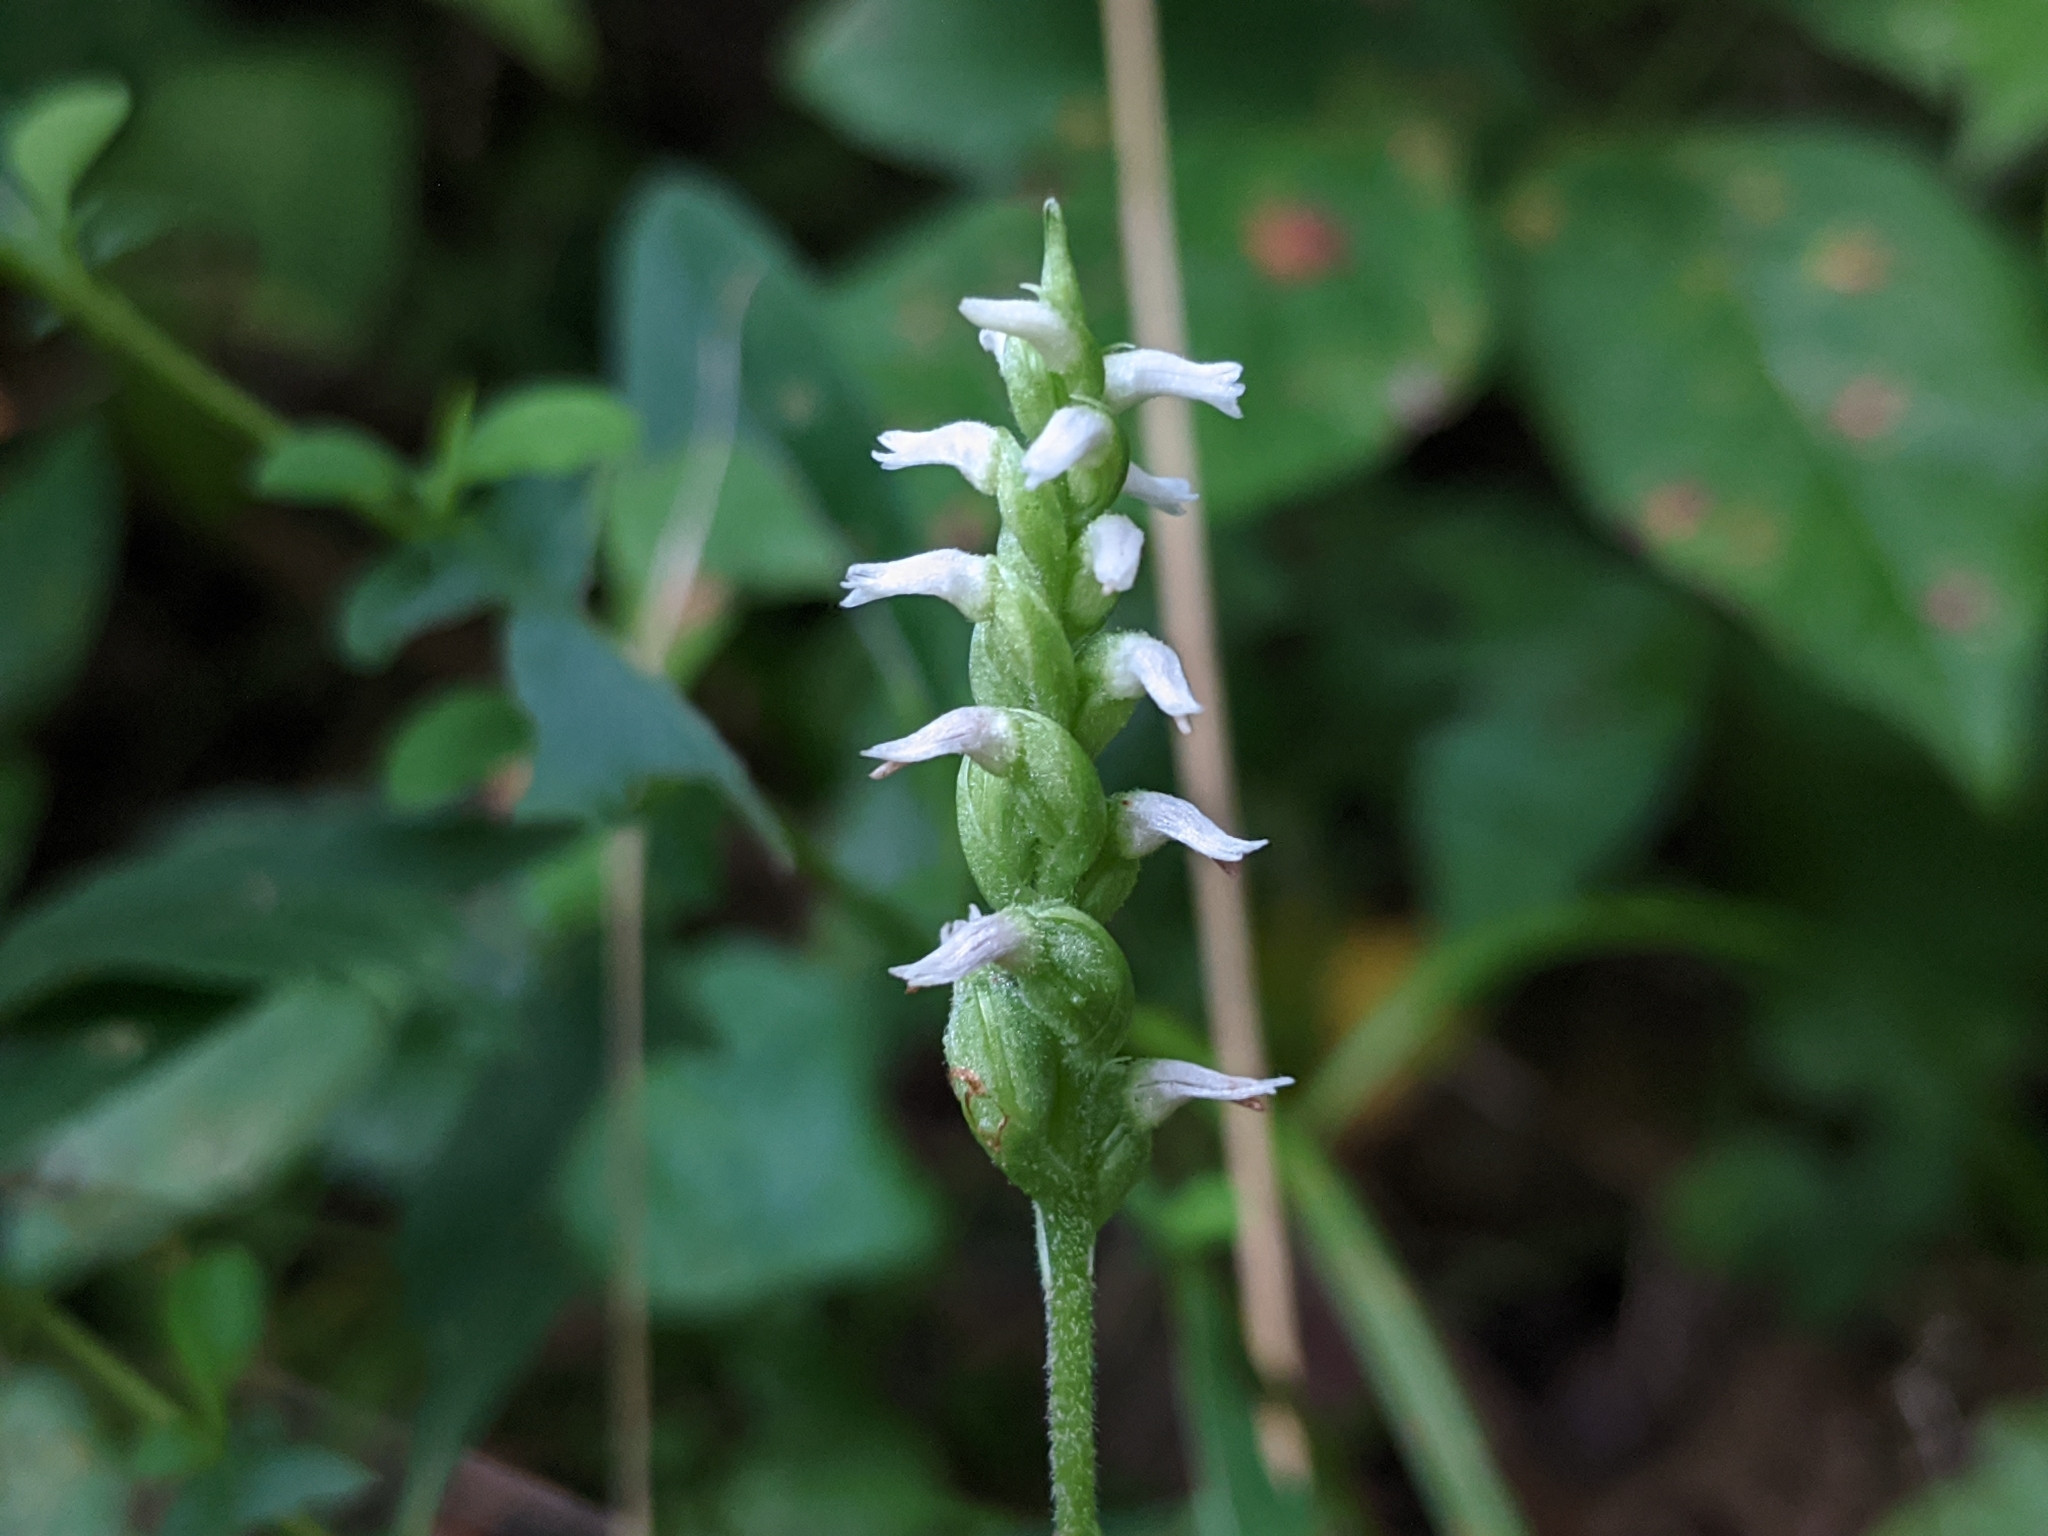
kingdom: Plantae
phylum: Tracheophyta
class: Liliopsida
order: Asparagales
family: Orchidaceae
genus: Spiranthes
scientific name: Spiranthes ovalis
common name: October ladies'-tresses
